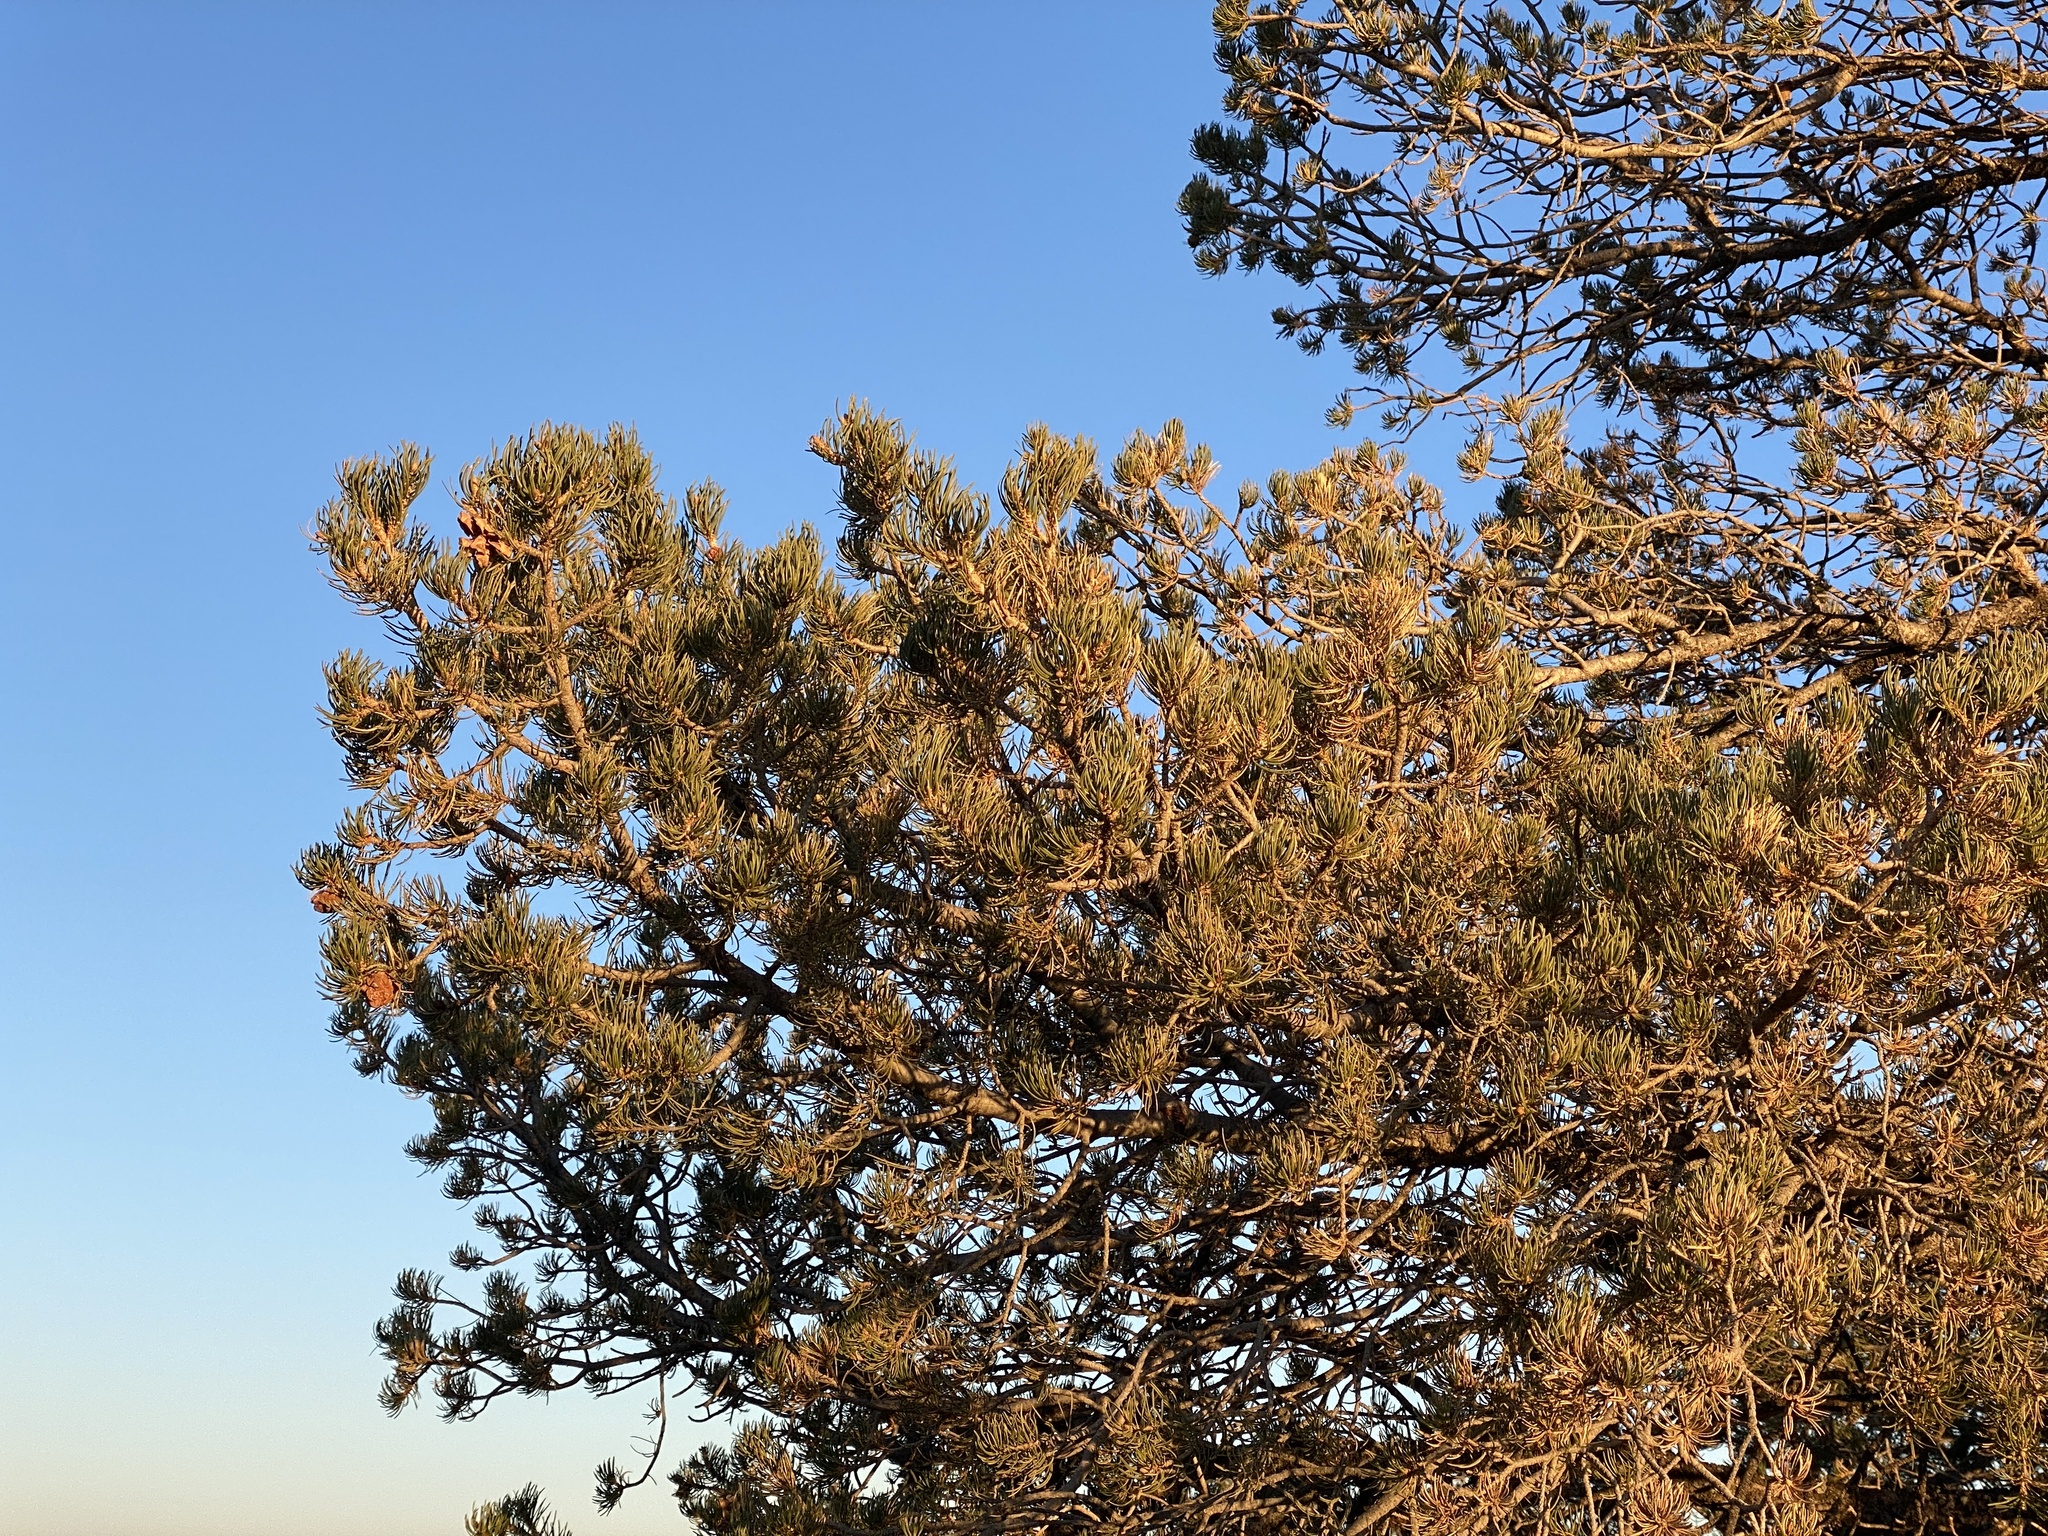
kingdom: Plantae
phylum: Tracheophyta
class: Pinopsida
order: Pinales
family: Pinaceae
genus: Pinus
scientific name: Pinus edulis
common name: Colorado pinyon
